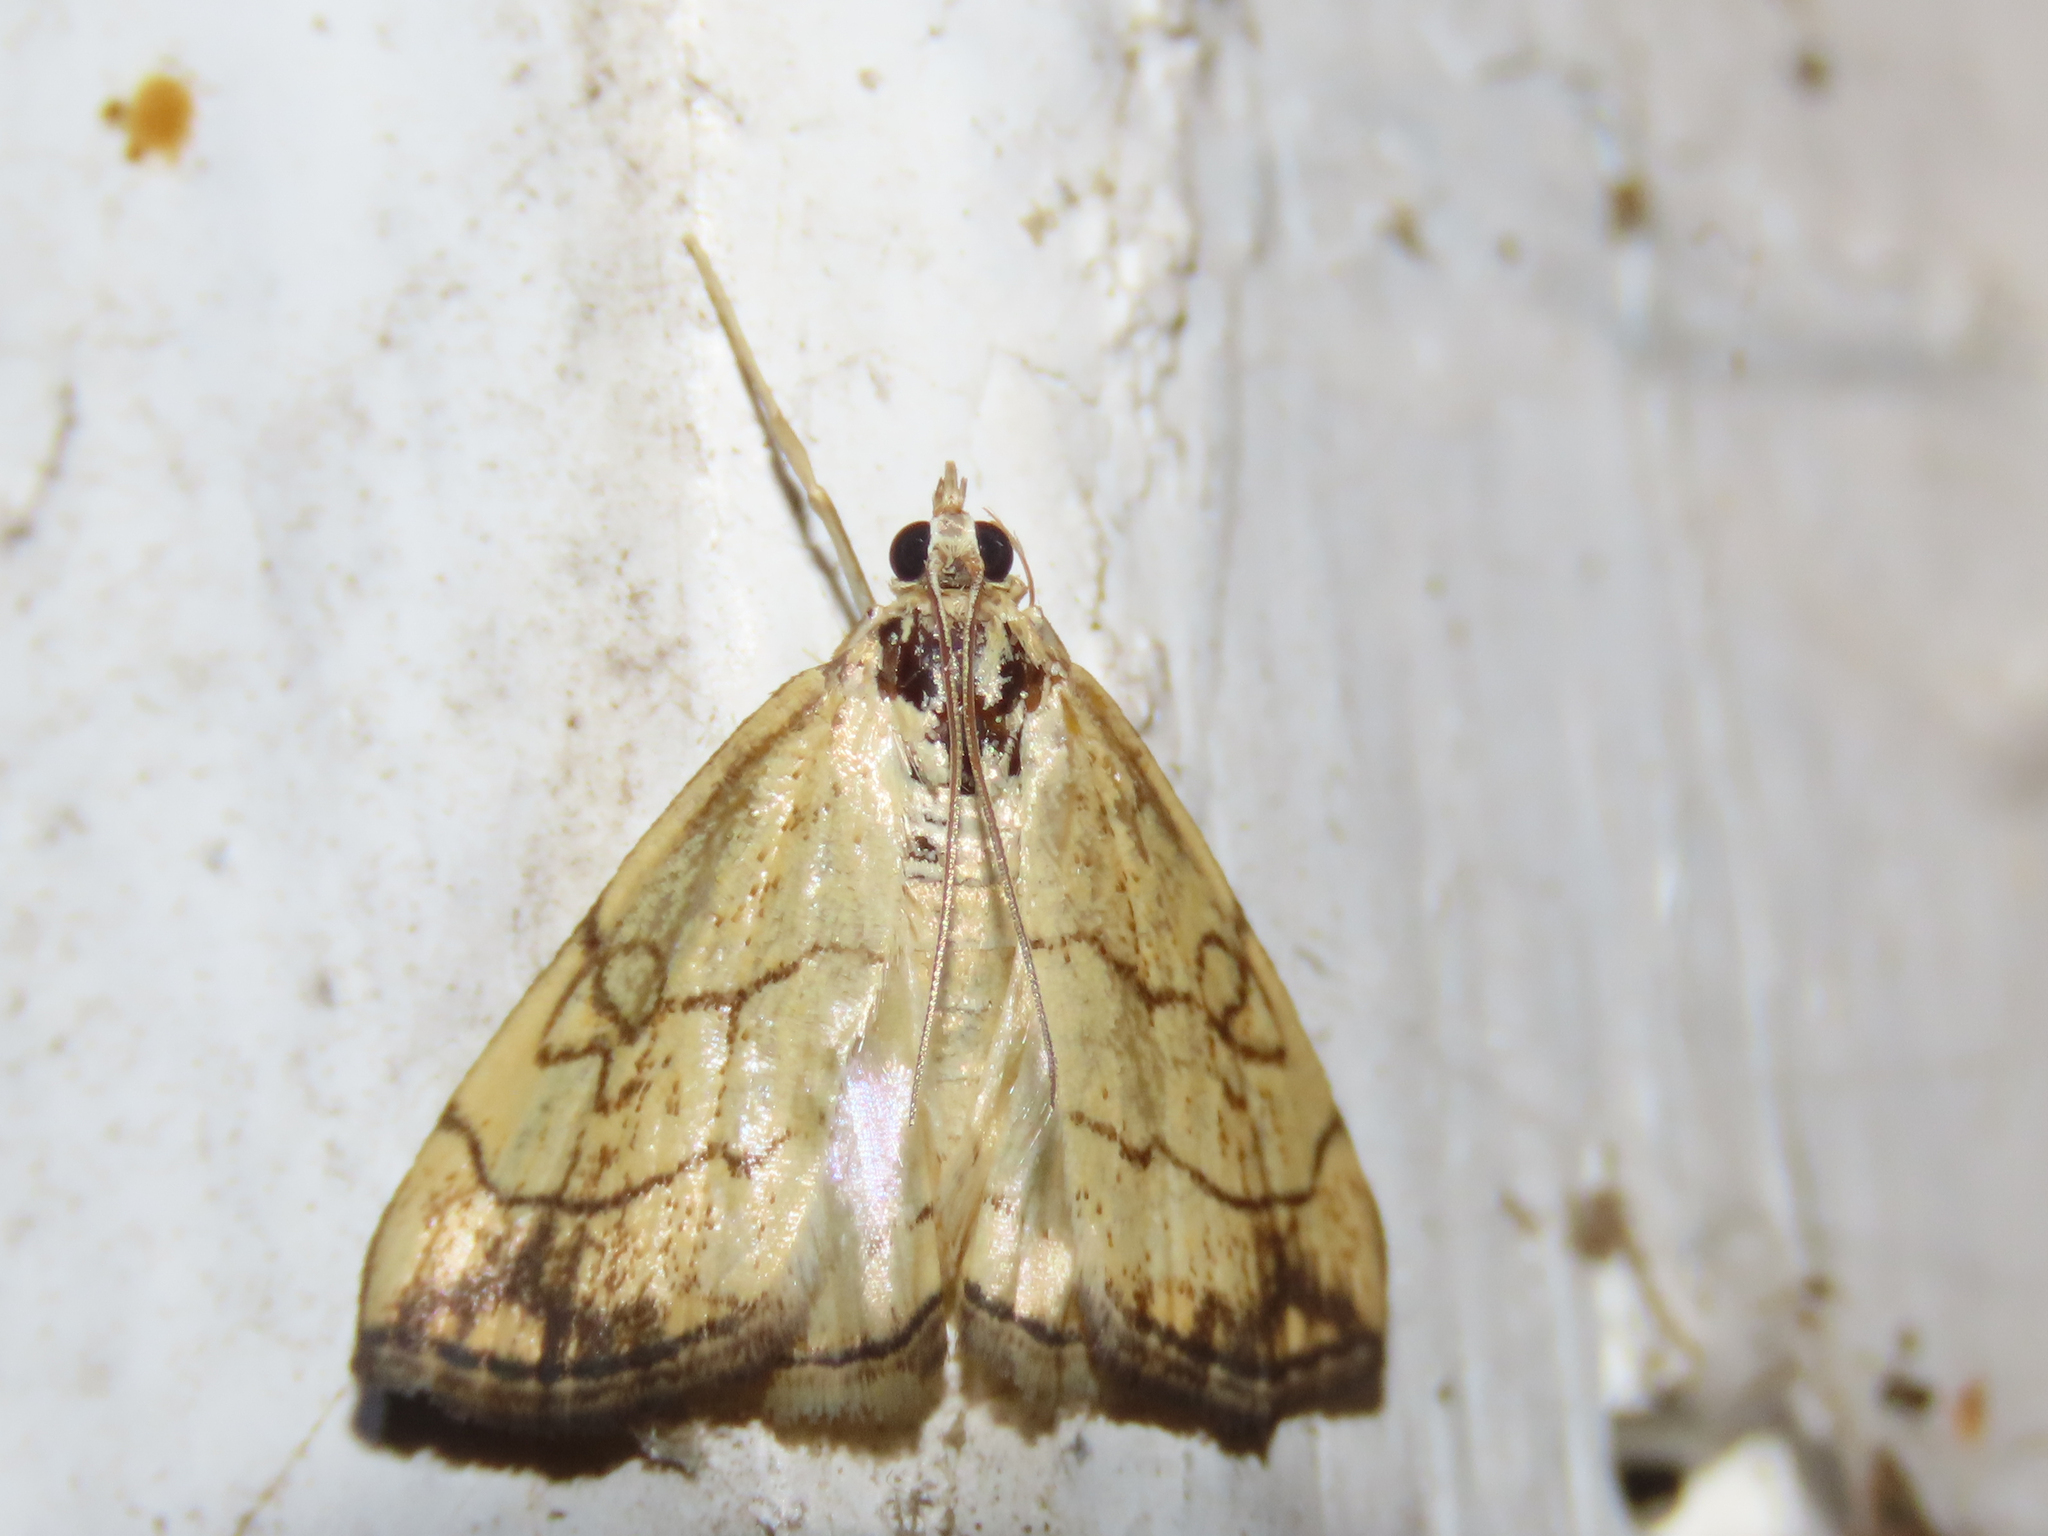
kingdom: Animalia
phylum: Arthropoda
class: Insecta
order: Lepidoptera
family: Crambidae
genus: Evergestis
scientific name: Evergestis pallidata
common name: Chequered pearl
